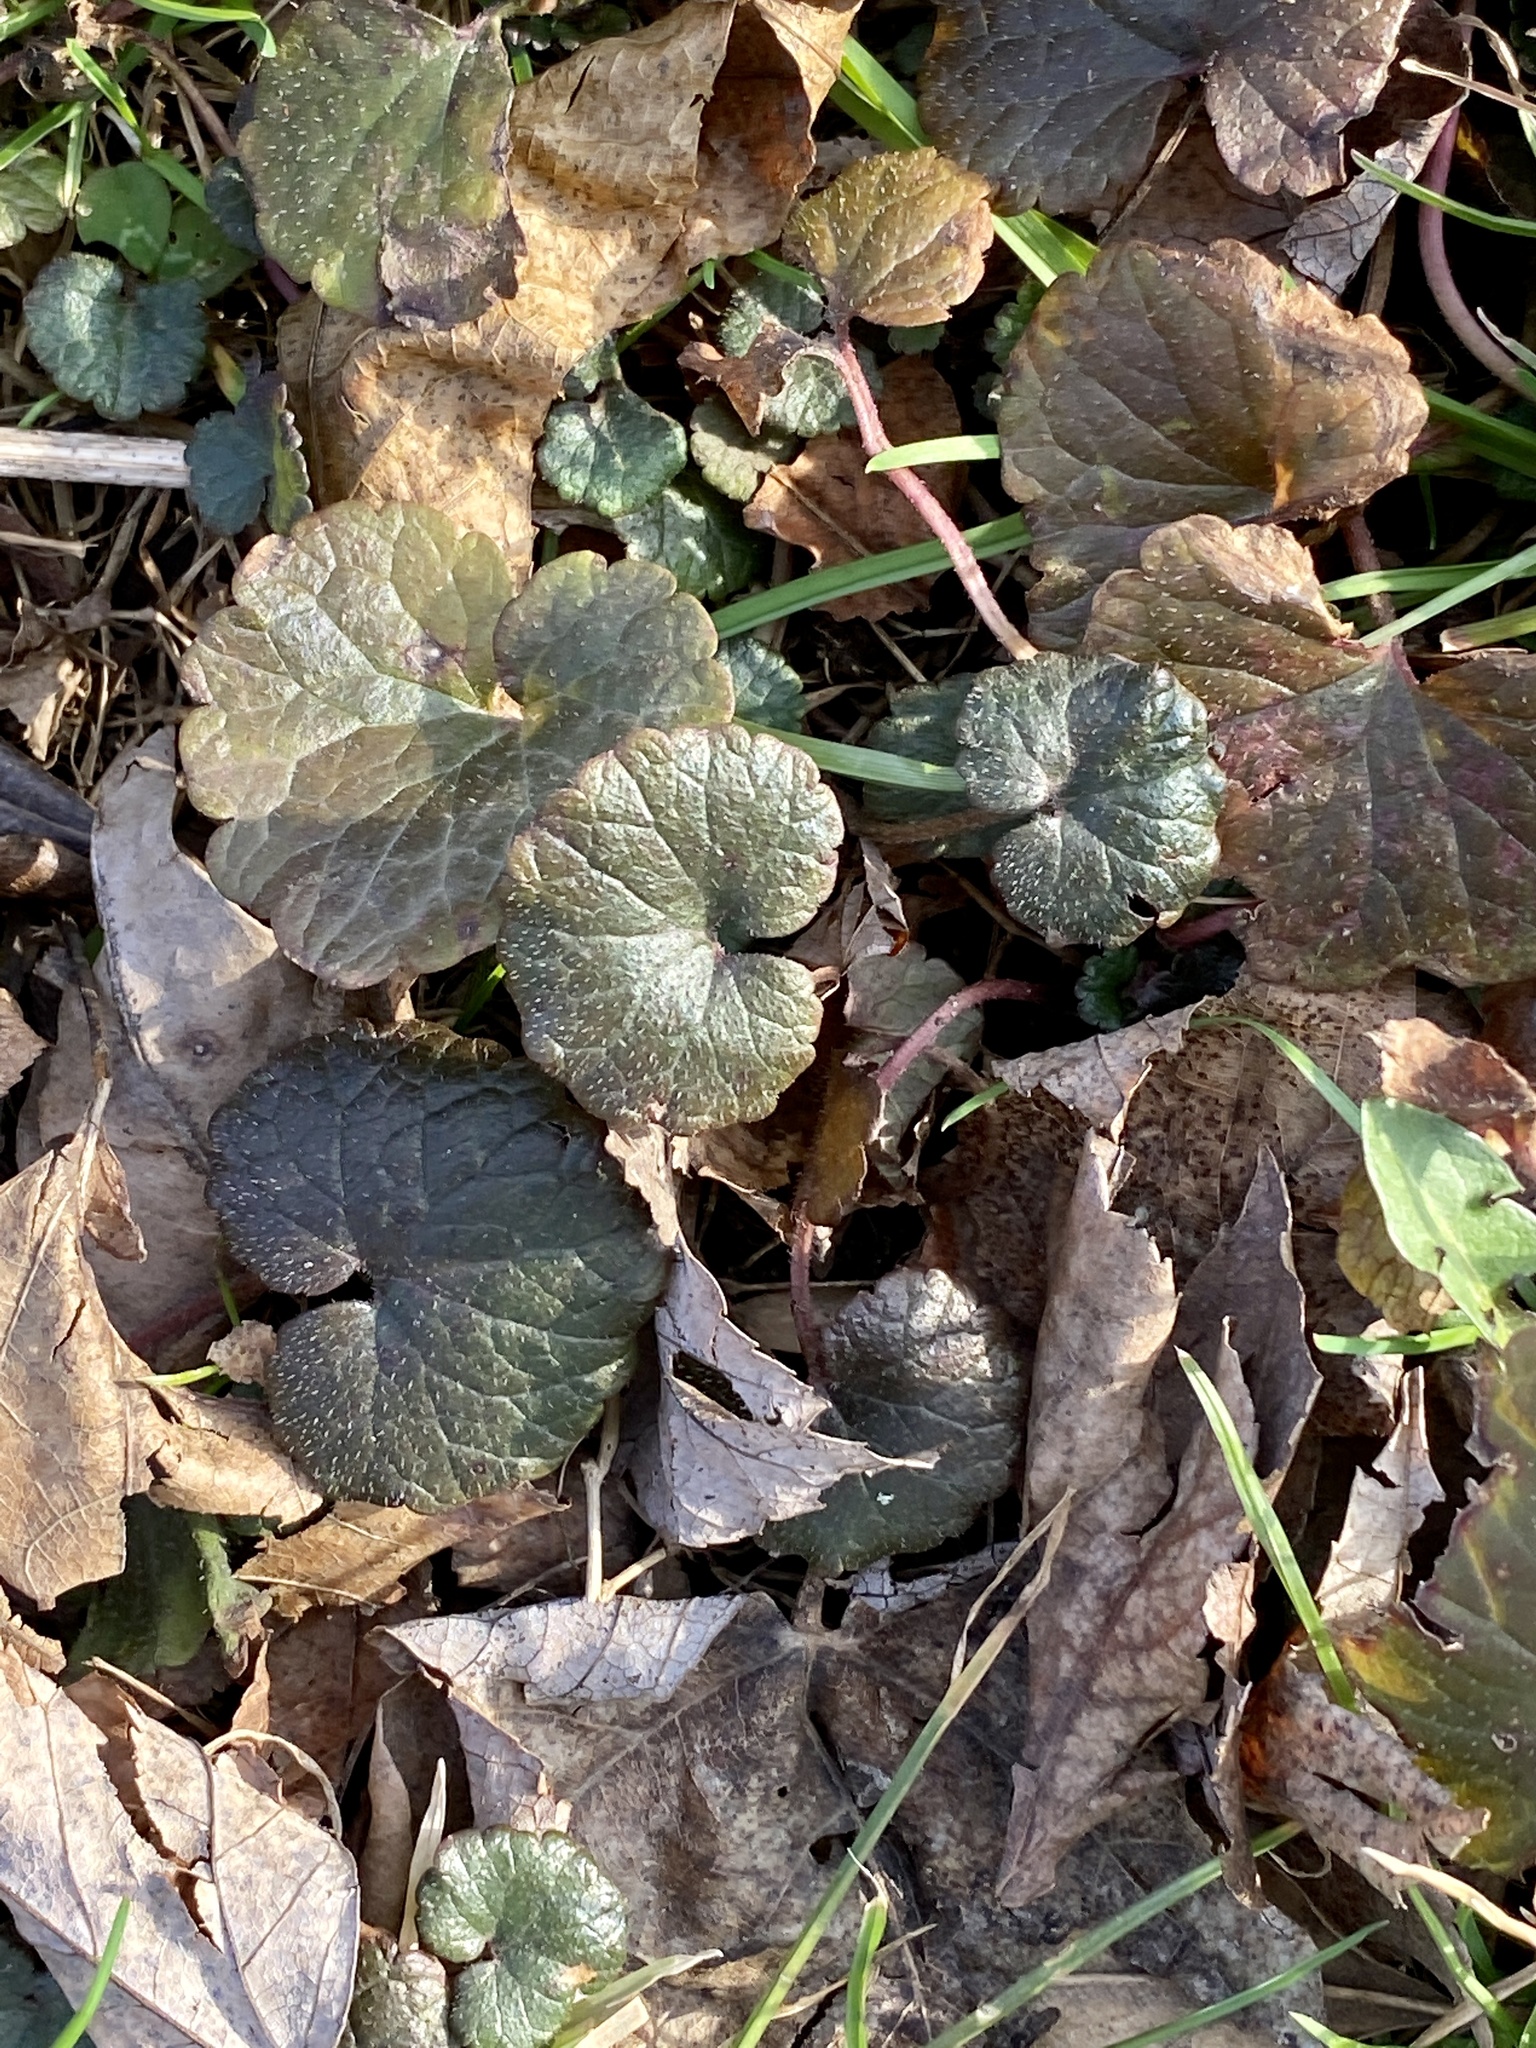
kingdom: Plantae
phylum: Tracheophyta
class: Magnoliopsida
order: Lamiales
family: Lamiaceae
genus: Glechoma
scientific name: Glechoma hederacea
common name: Ground ivy
